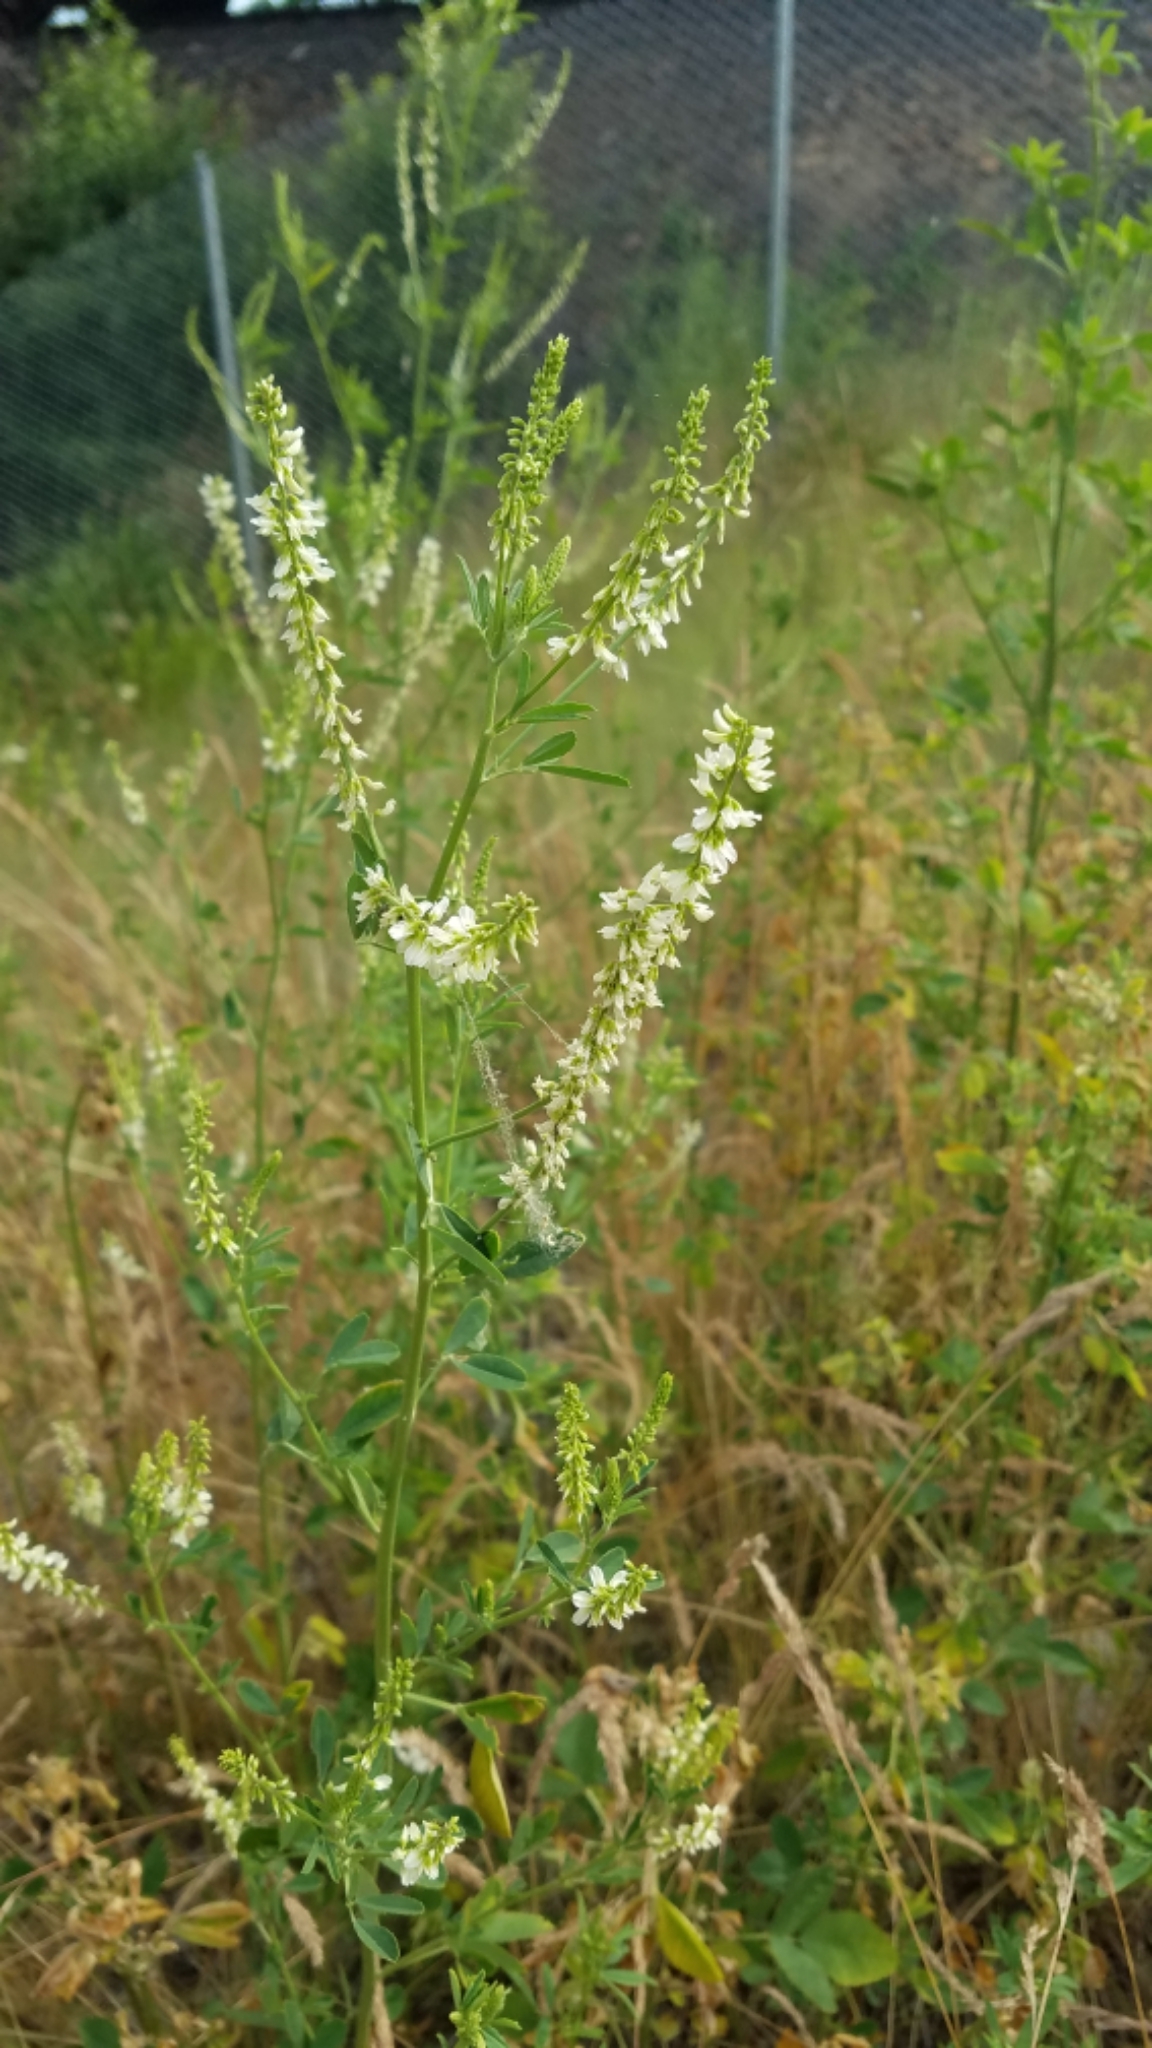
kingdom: Plantae
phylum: Tracheophyta
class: Magnoliopsida
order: Fabales
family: Fabaceae
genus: Melilotus
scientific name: Melilotus albus
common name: White melilot
